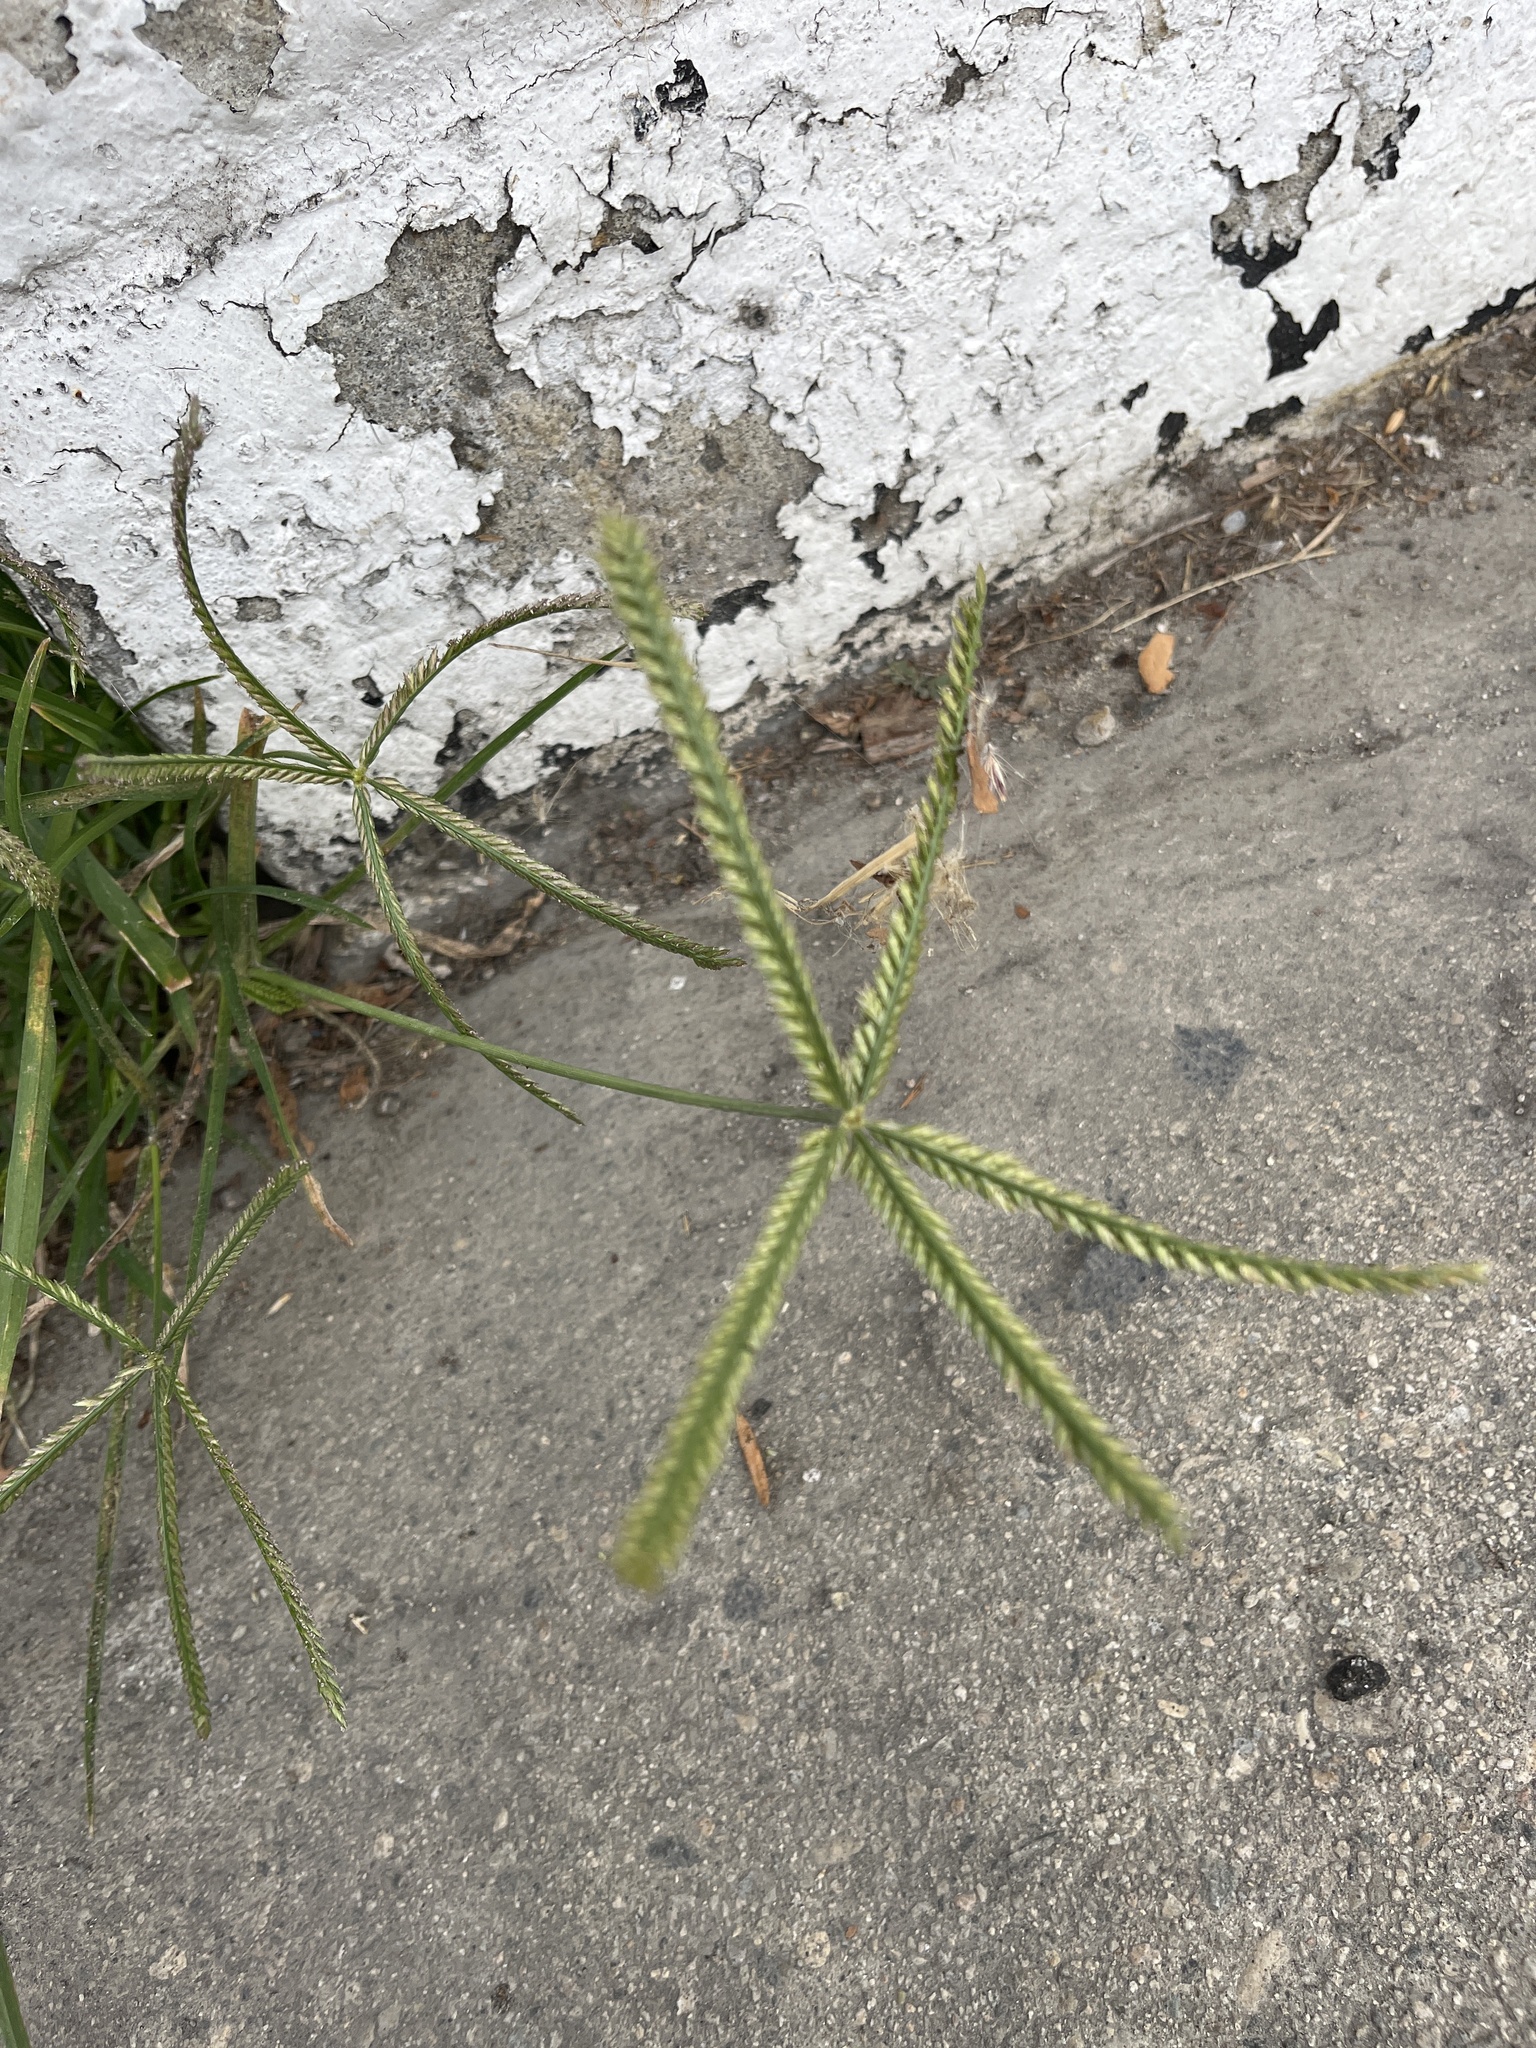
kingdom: Plantae
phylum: Tracheophyta
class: Liliopsida
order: Poales
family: Poaceae
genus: Eleusine
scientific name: Eleusine indica
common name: Yard-grass
